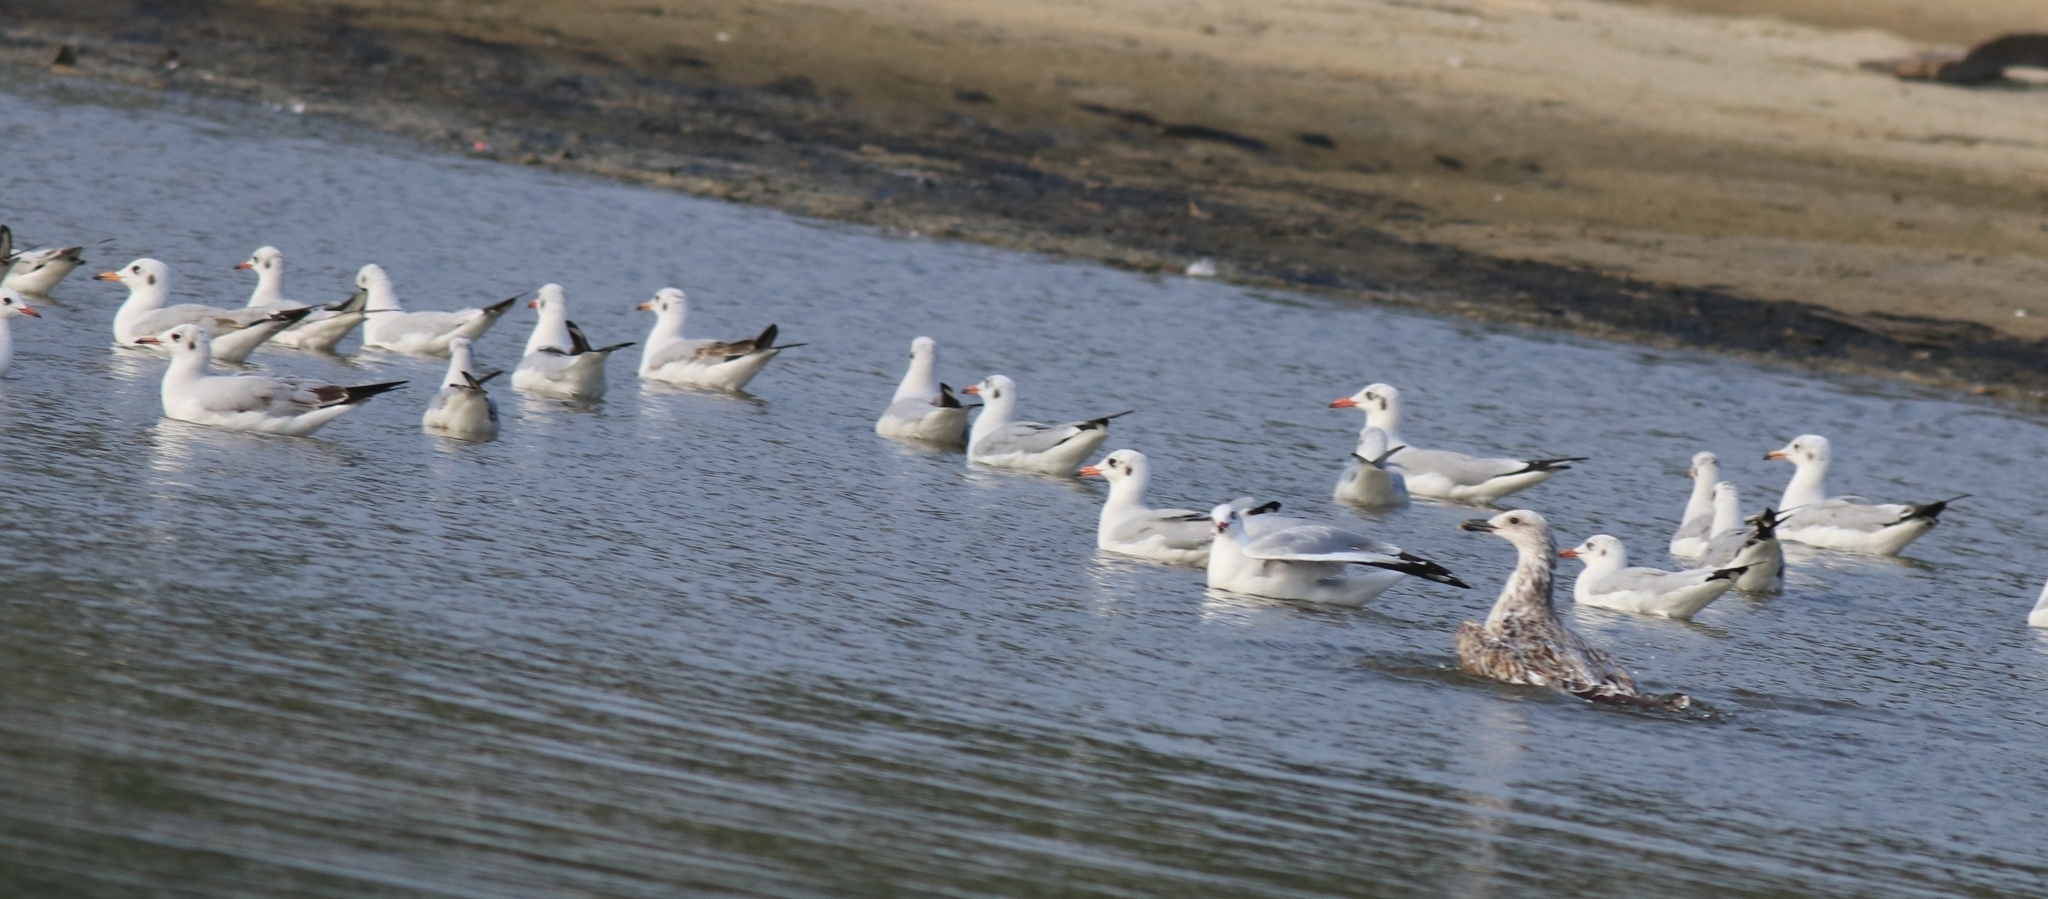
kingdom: Animalia
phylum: Chordata
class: Aves
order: Charadriiformes
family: Laridae
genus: Chroicocephalus
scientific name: Chroicocephalus brunnicephalus
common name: Brown-headed gull
